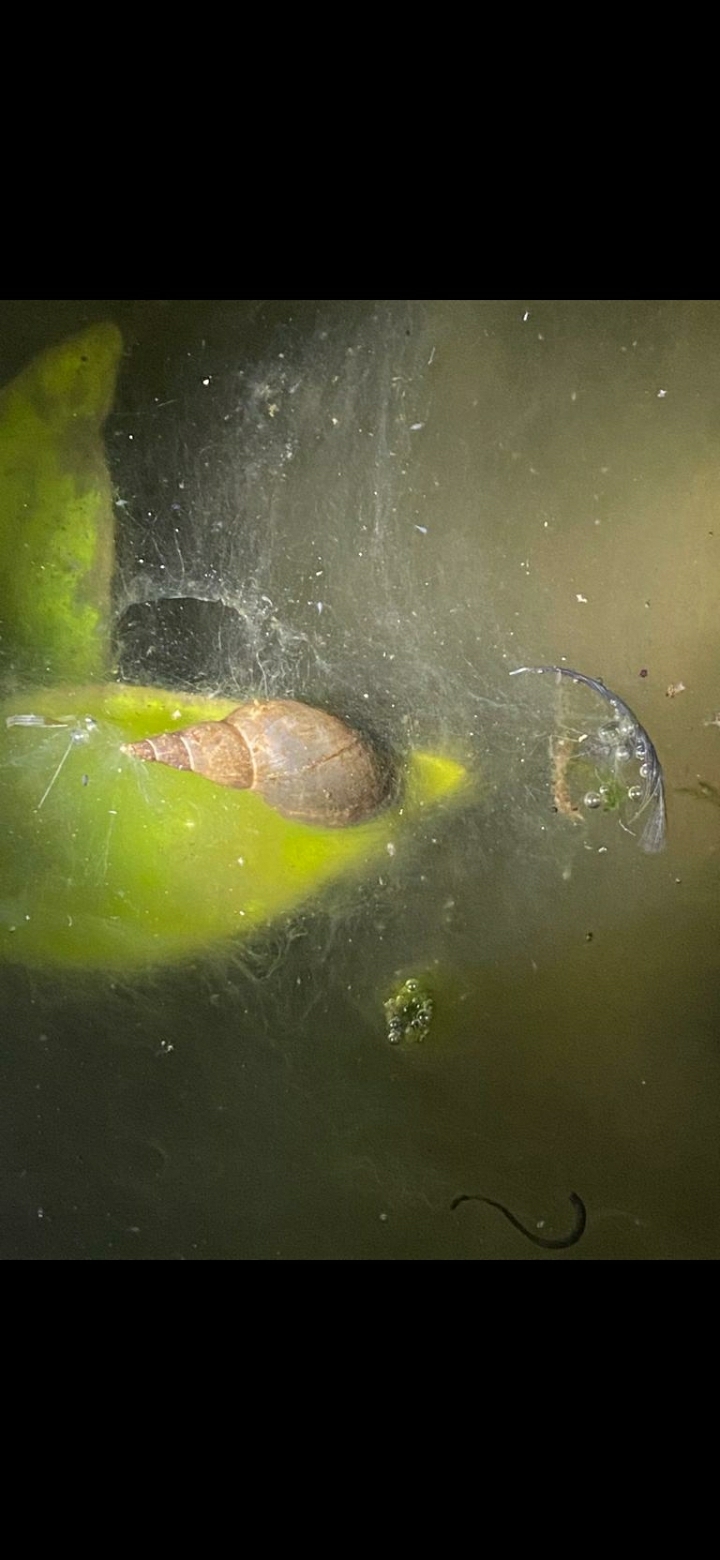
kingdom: Animalia
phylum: Mollusca
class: Gastropoda
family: Lymnaeidae
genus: Lymnaea
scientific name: Lymnaea stagnalis
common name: Great pond snail
